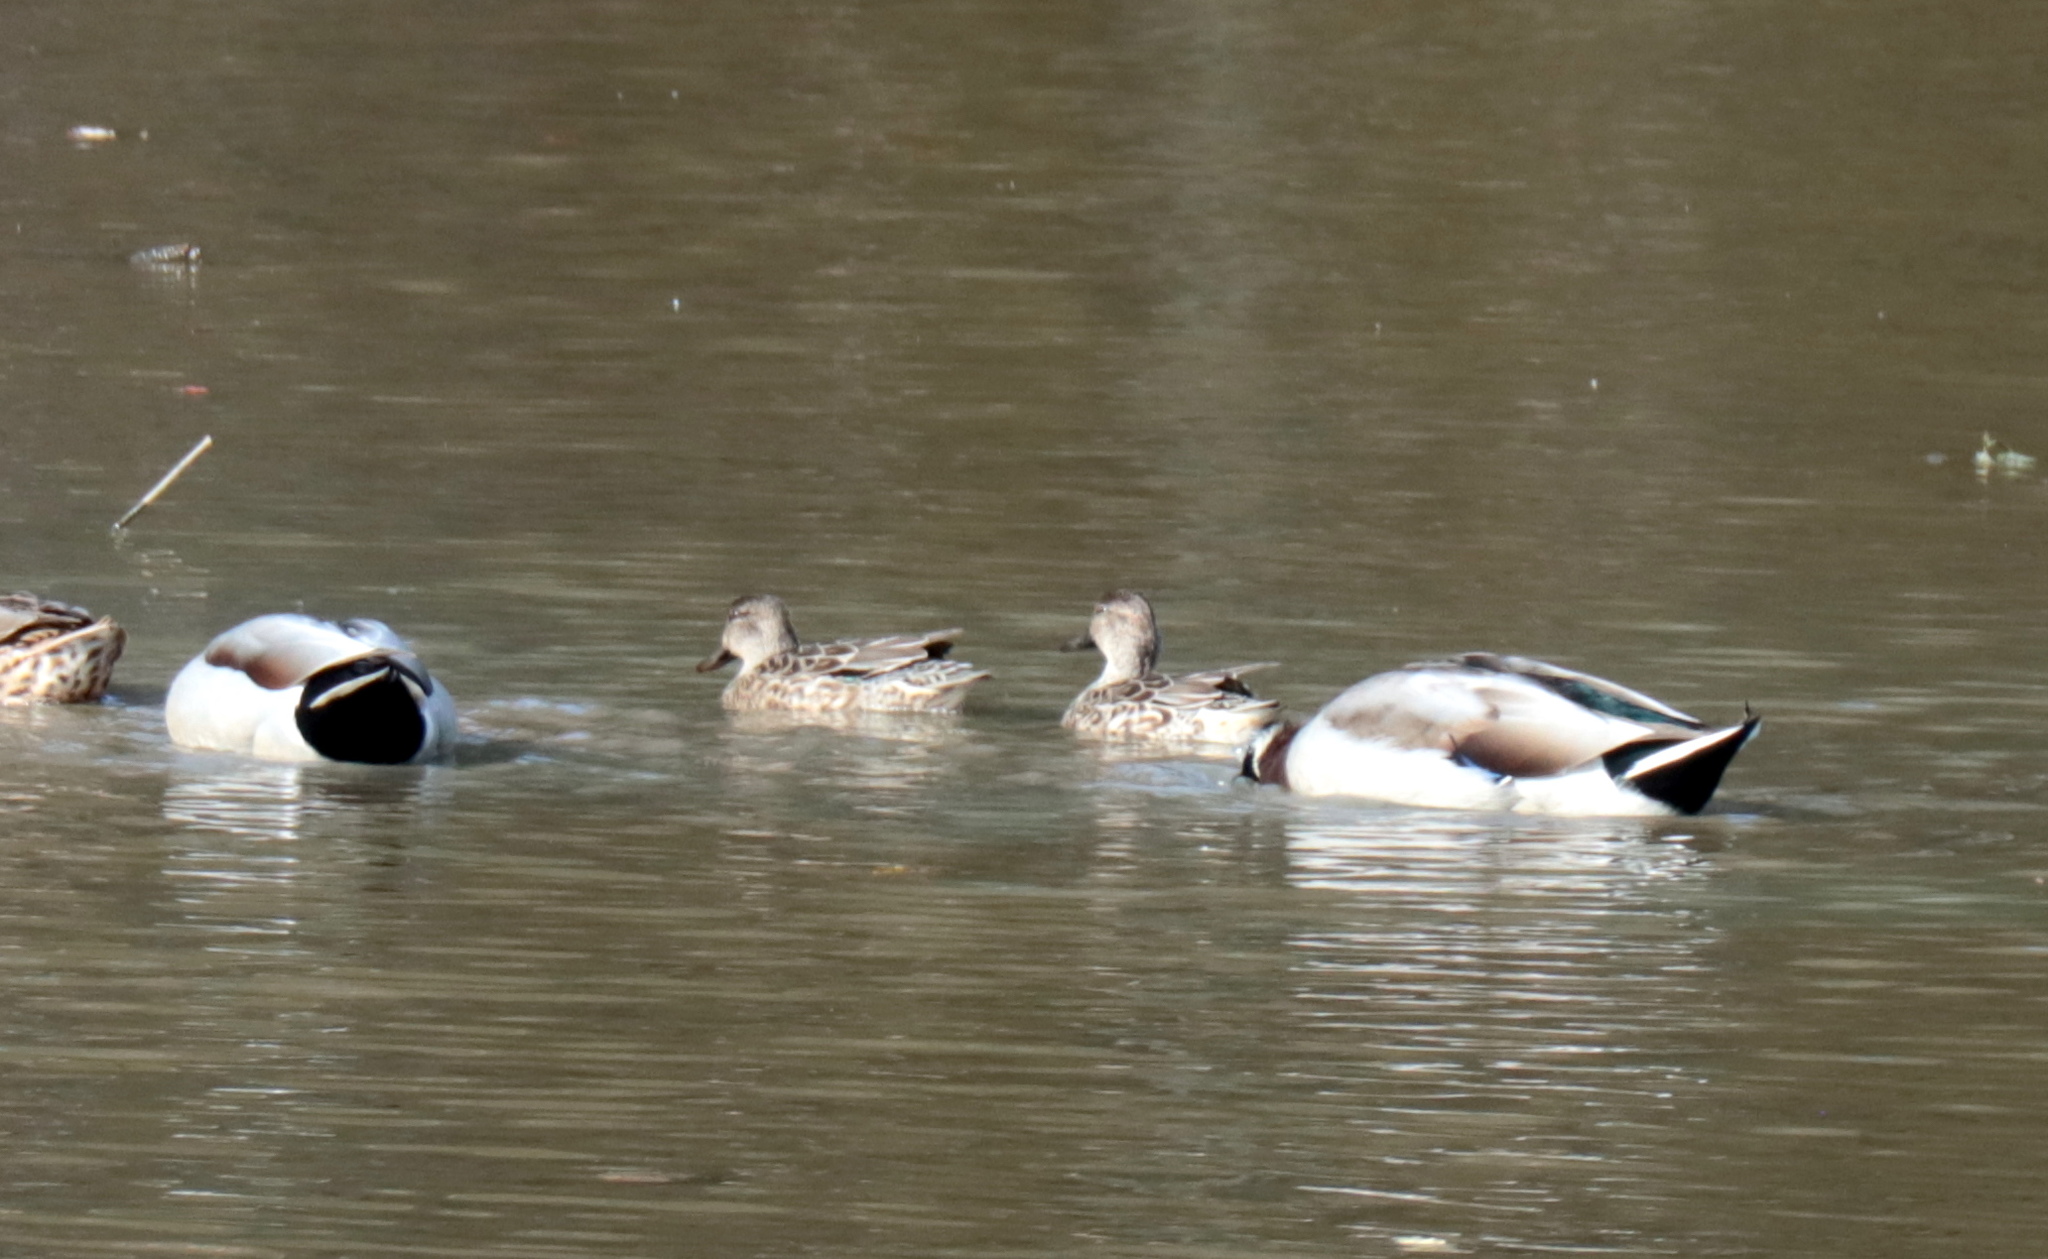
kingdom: Animalia
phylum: Chordata
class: Aves
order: Anseriformes
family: Anatidae
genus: Anas
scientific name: Anas crecca
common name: Eurasian teal
